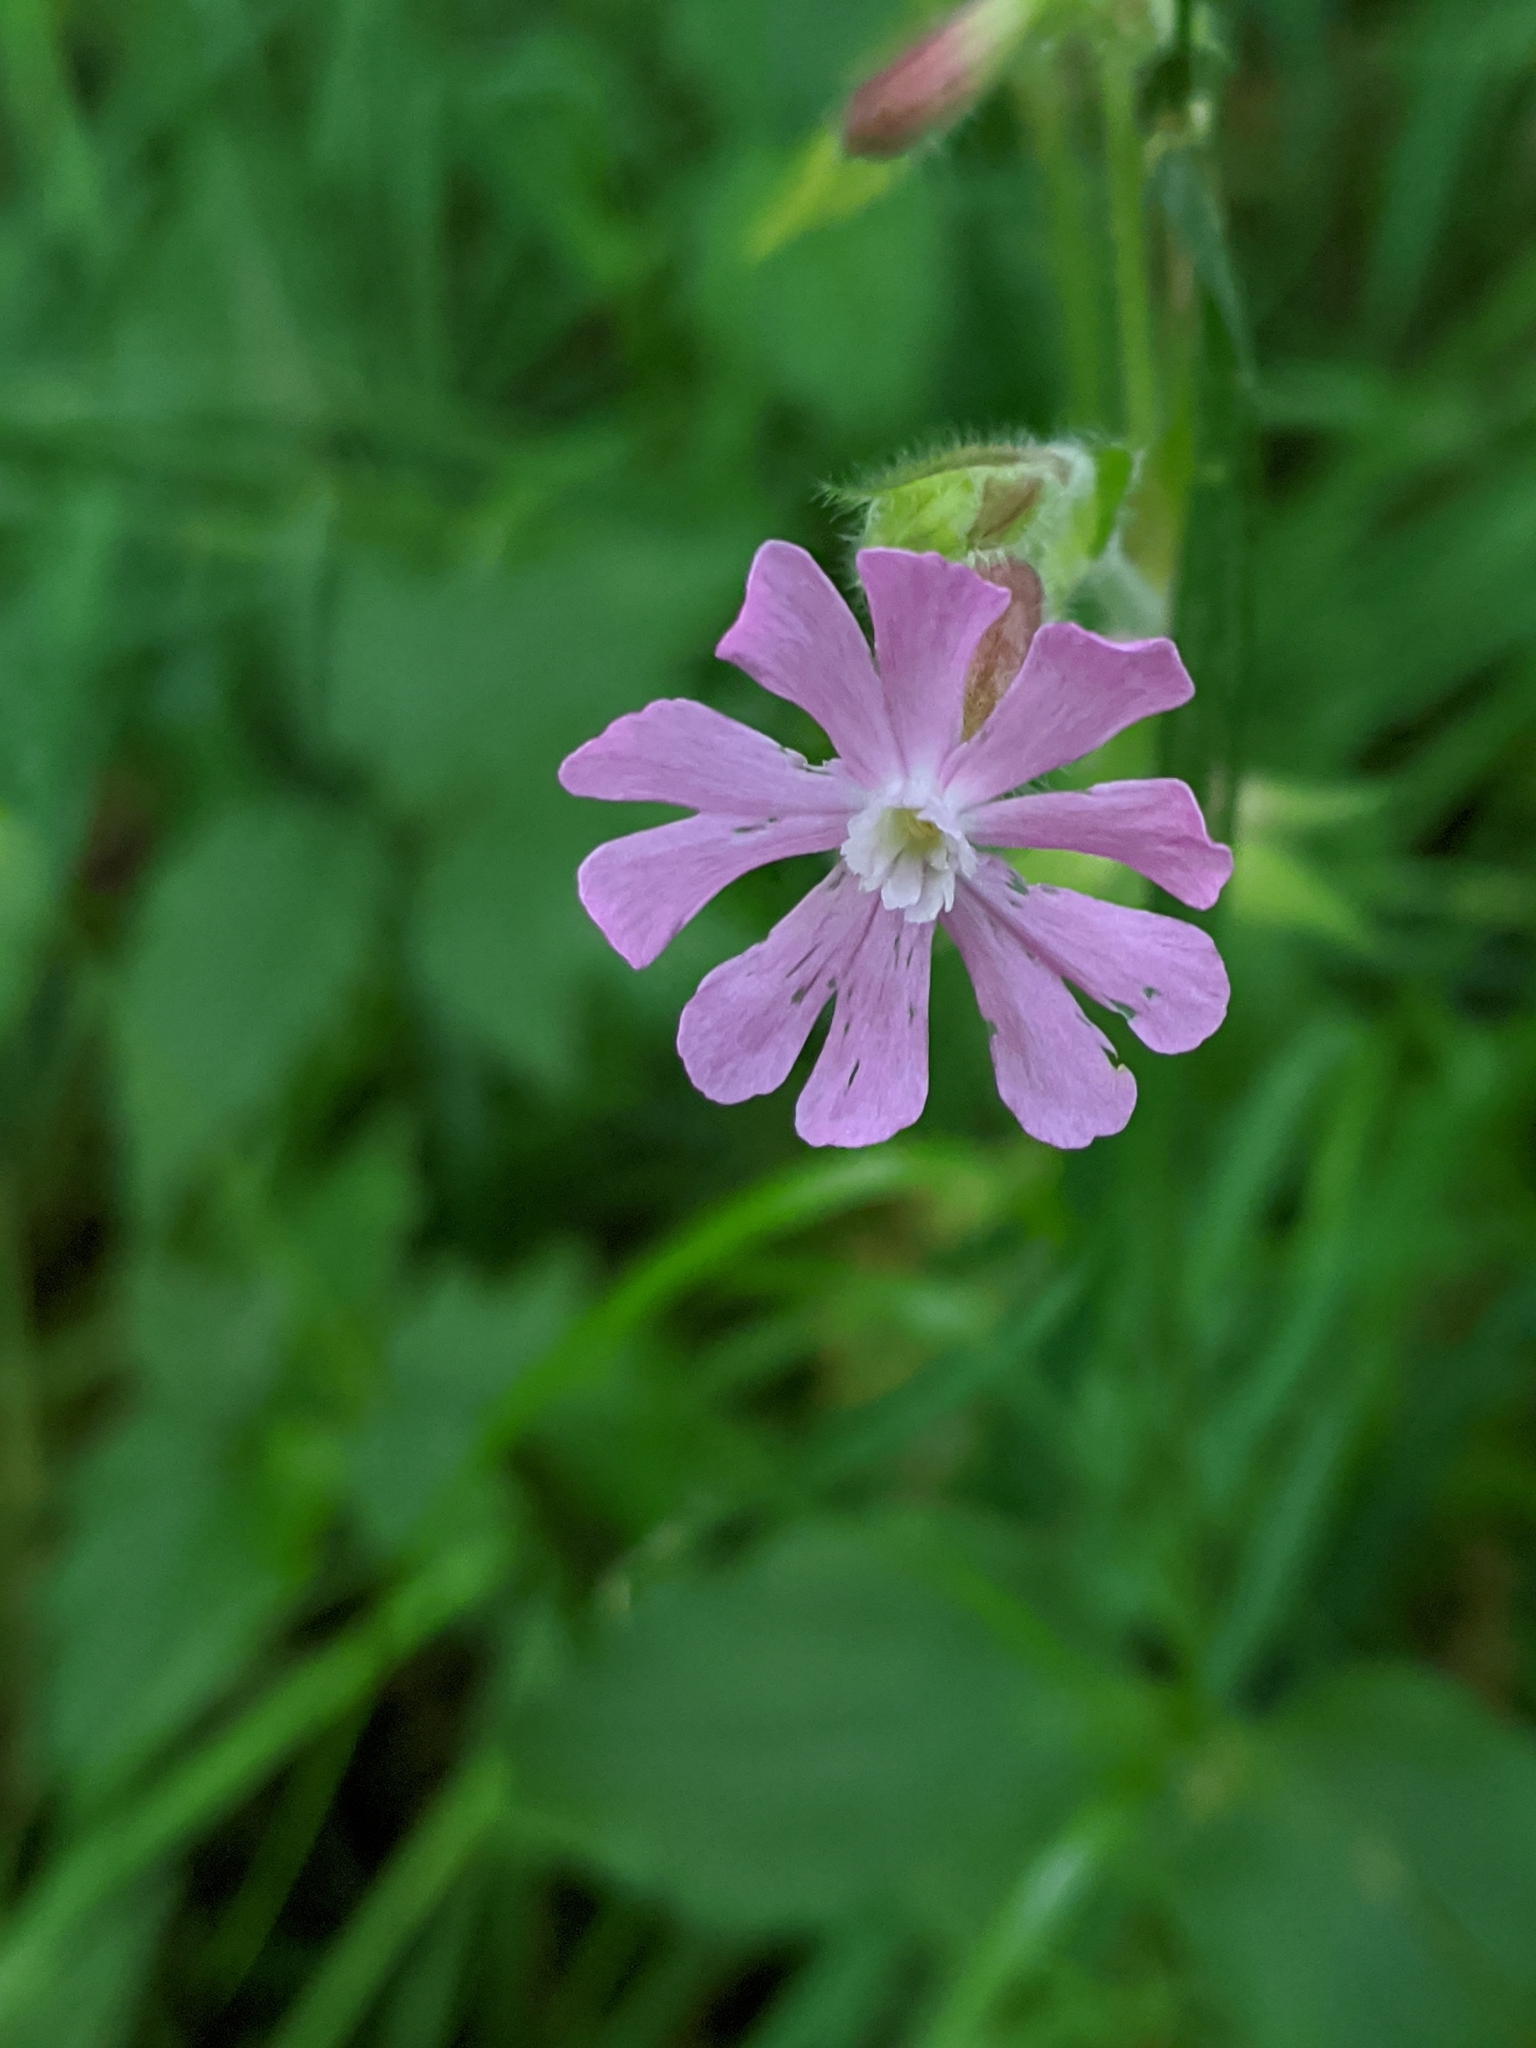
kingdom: Plantae
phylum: Tracheophyta
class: Magnoliopsida
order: Caryophyllales
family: Caryophyllaceae
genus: Silene
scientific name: Silene dioica
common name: Red campion
